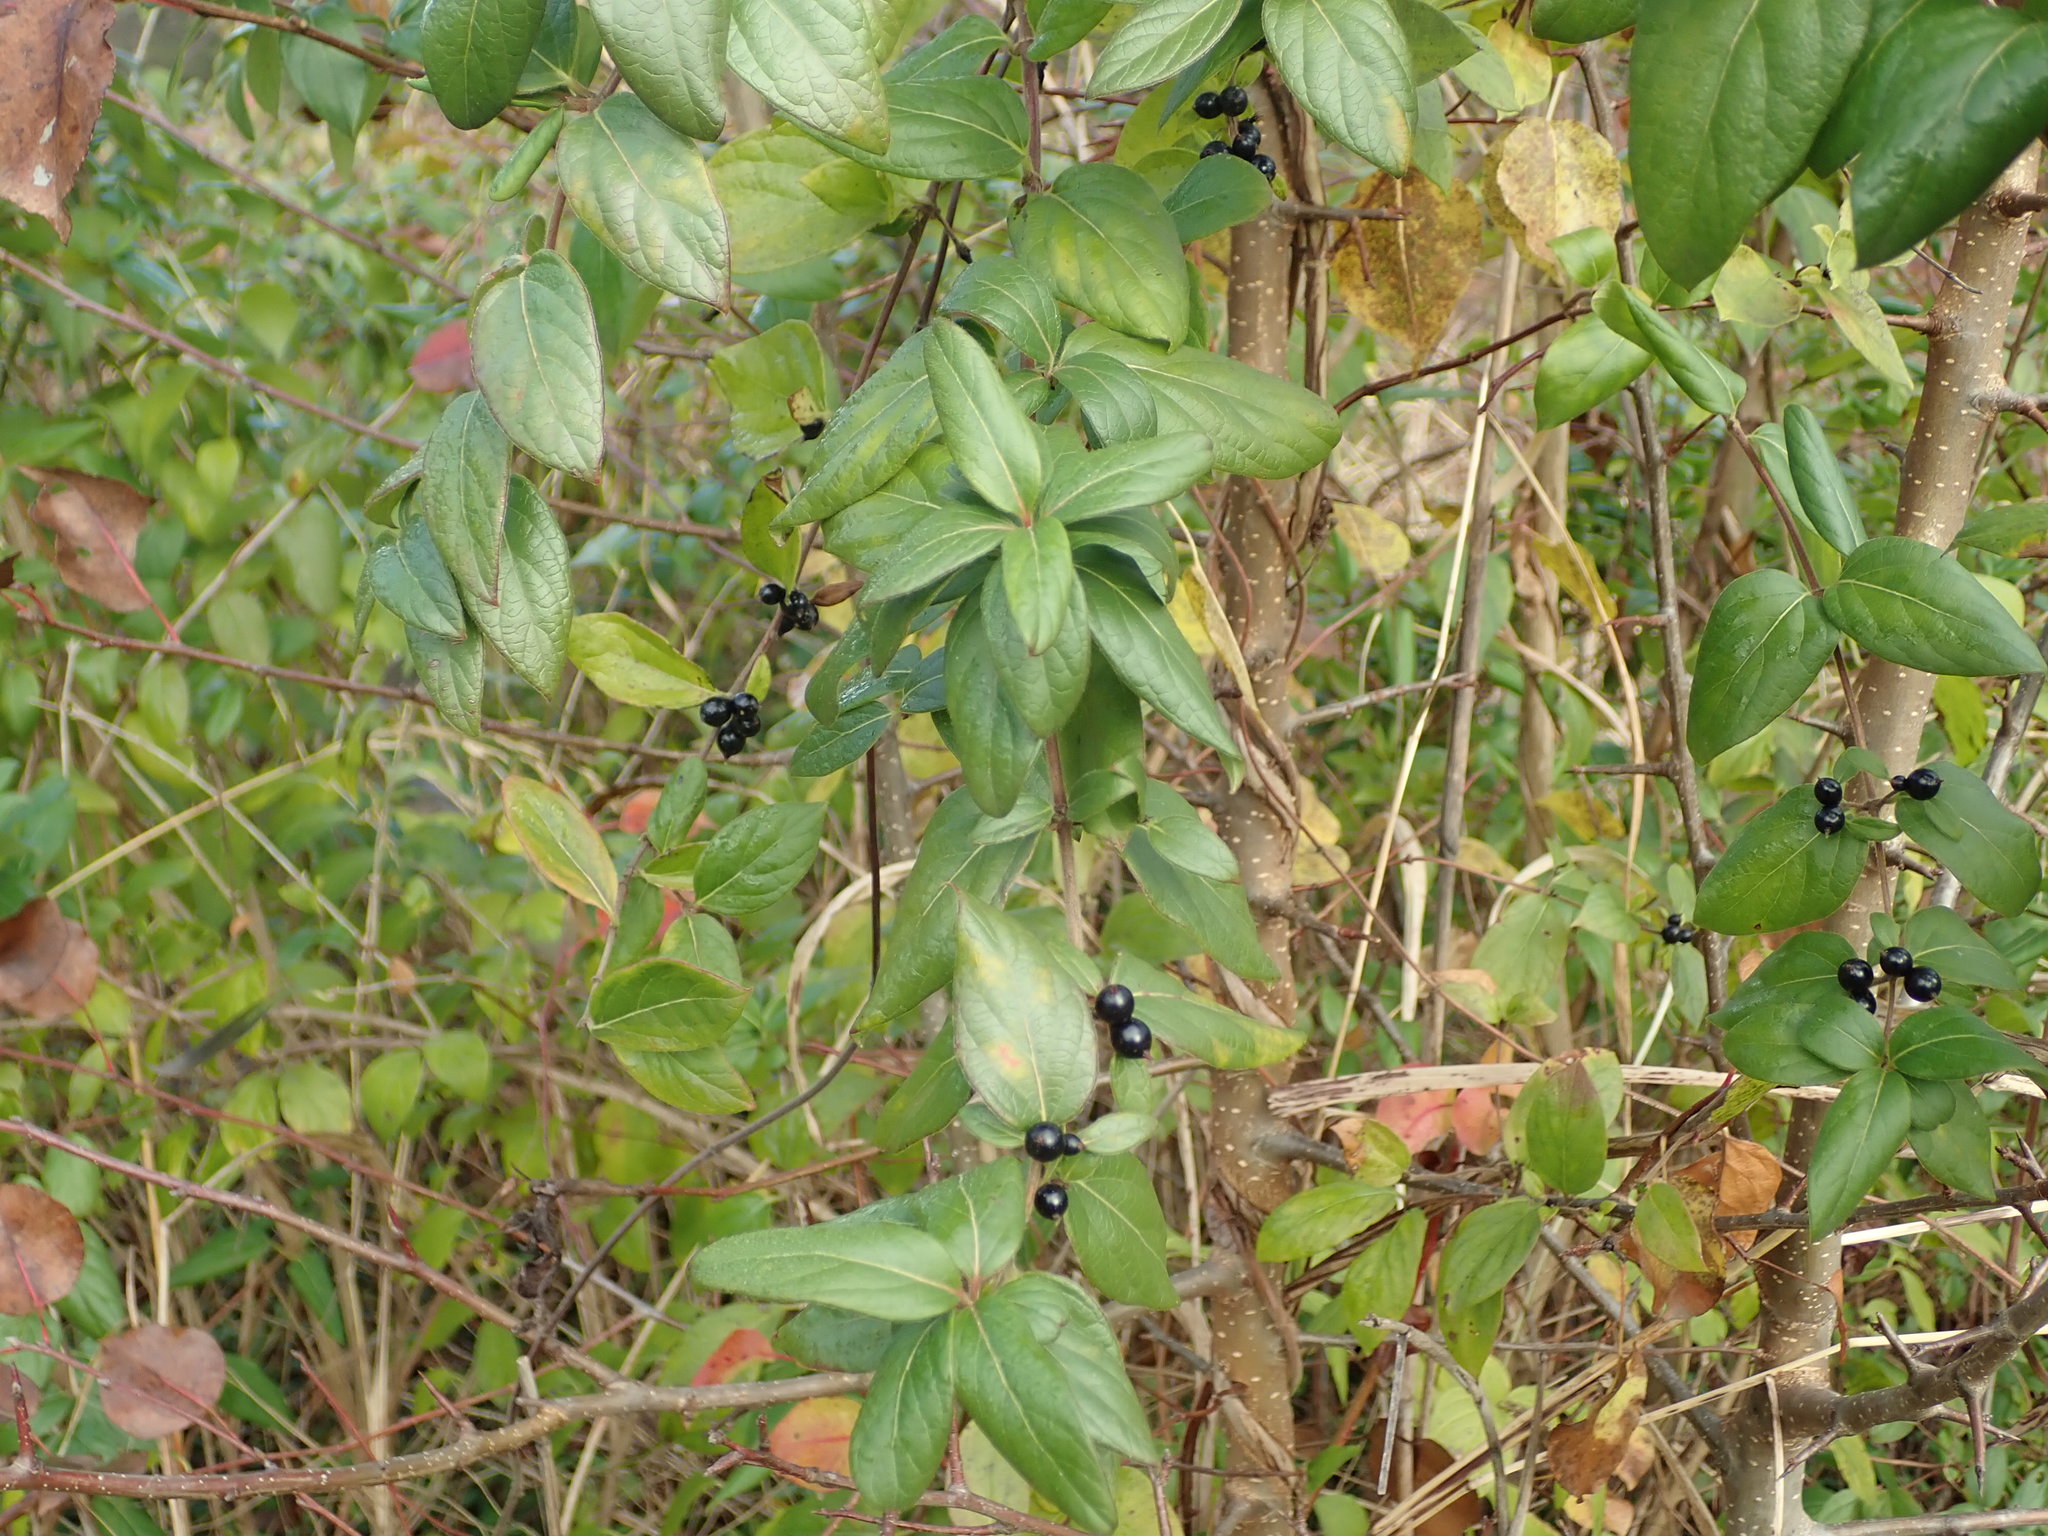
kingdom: Plantae
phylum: Tracheophyta
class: Magnoliopsida
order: Dipsacales
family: Caprifoliaceae
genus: Lonicera
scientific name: Lonicera japonica
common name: Japanese honeysuckle
